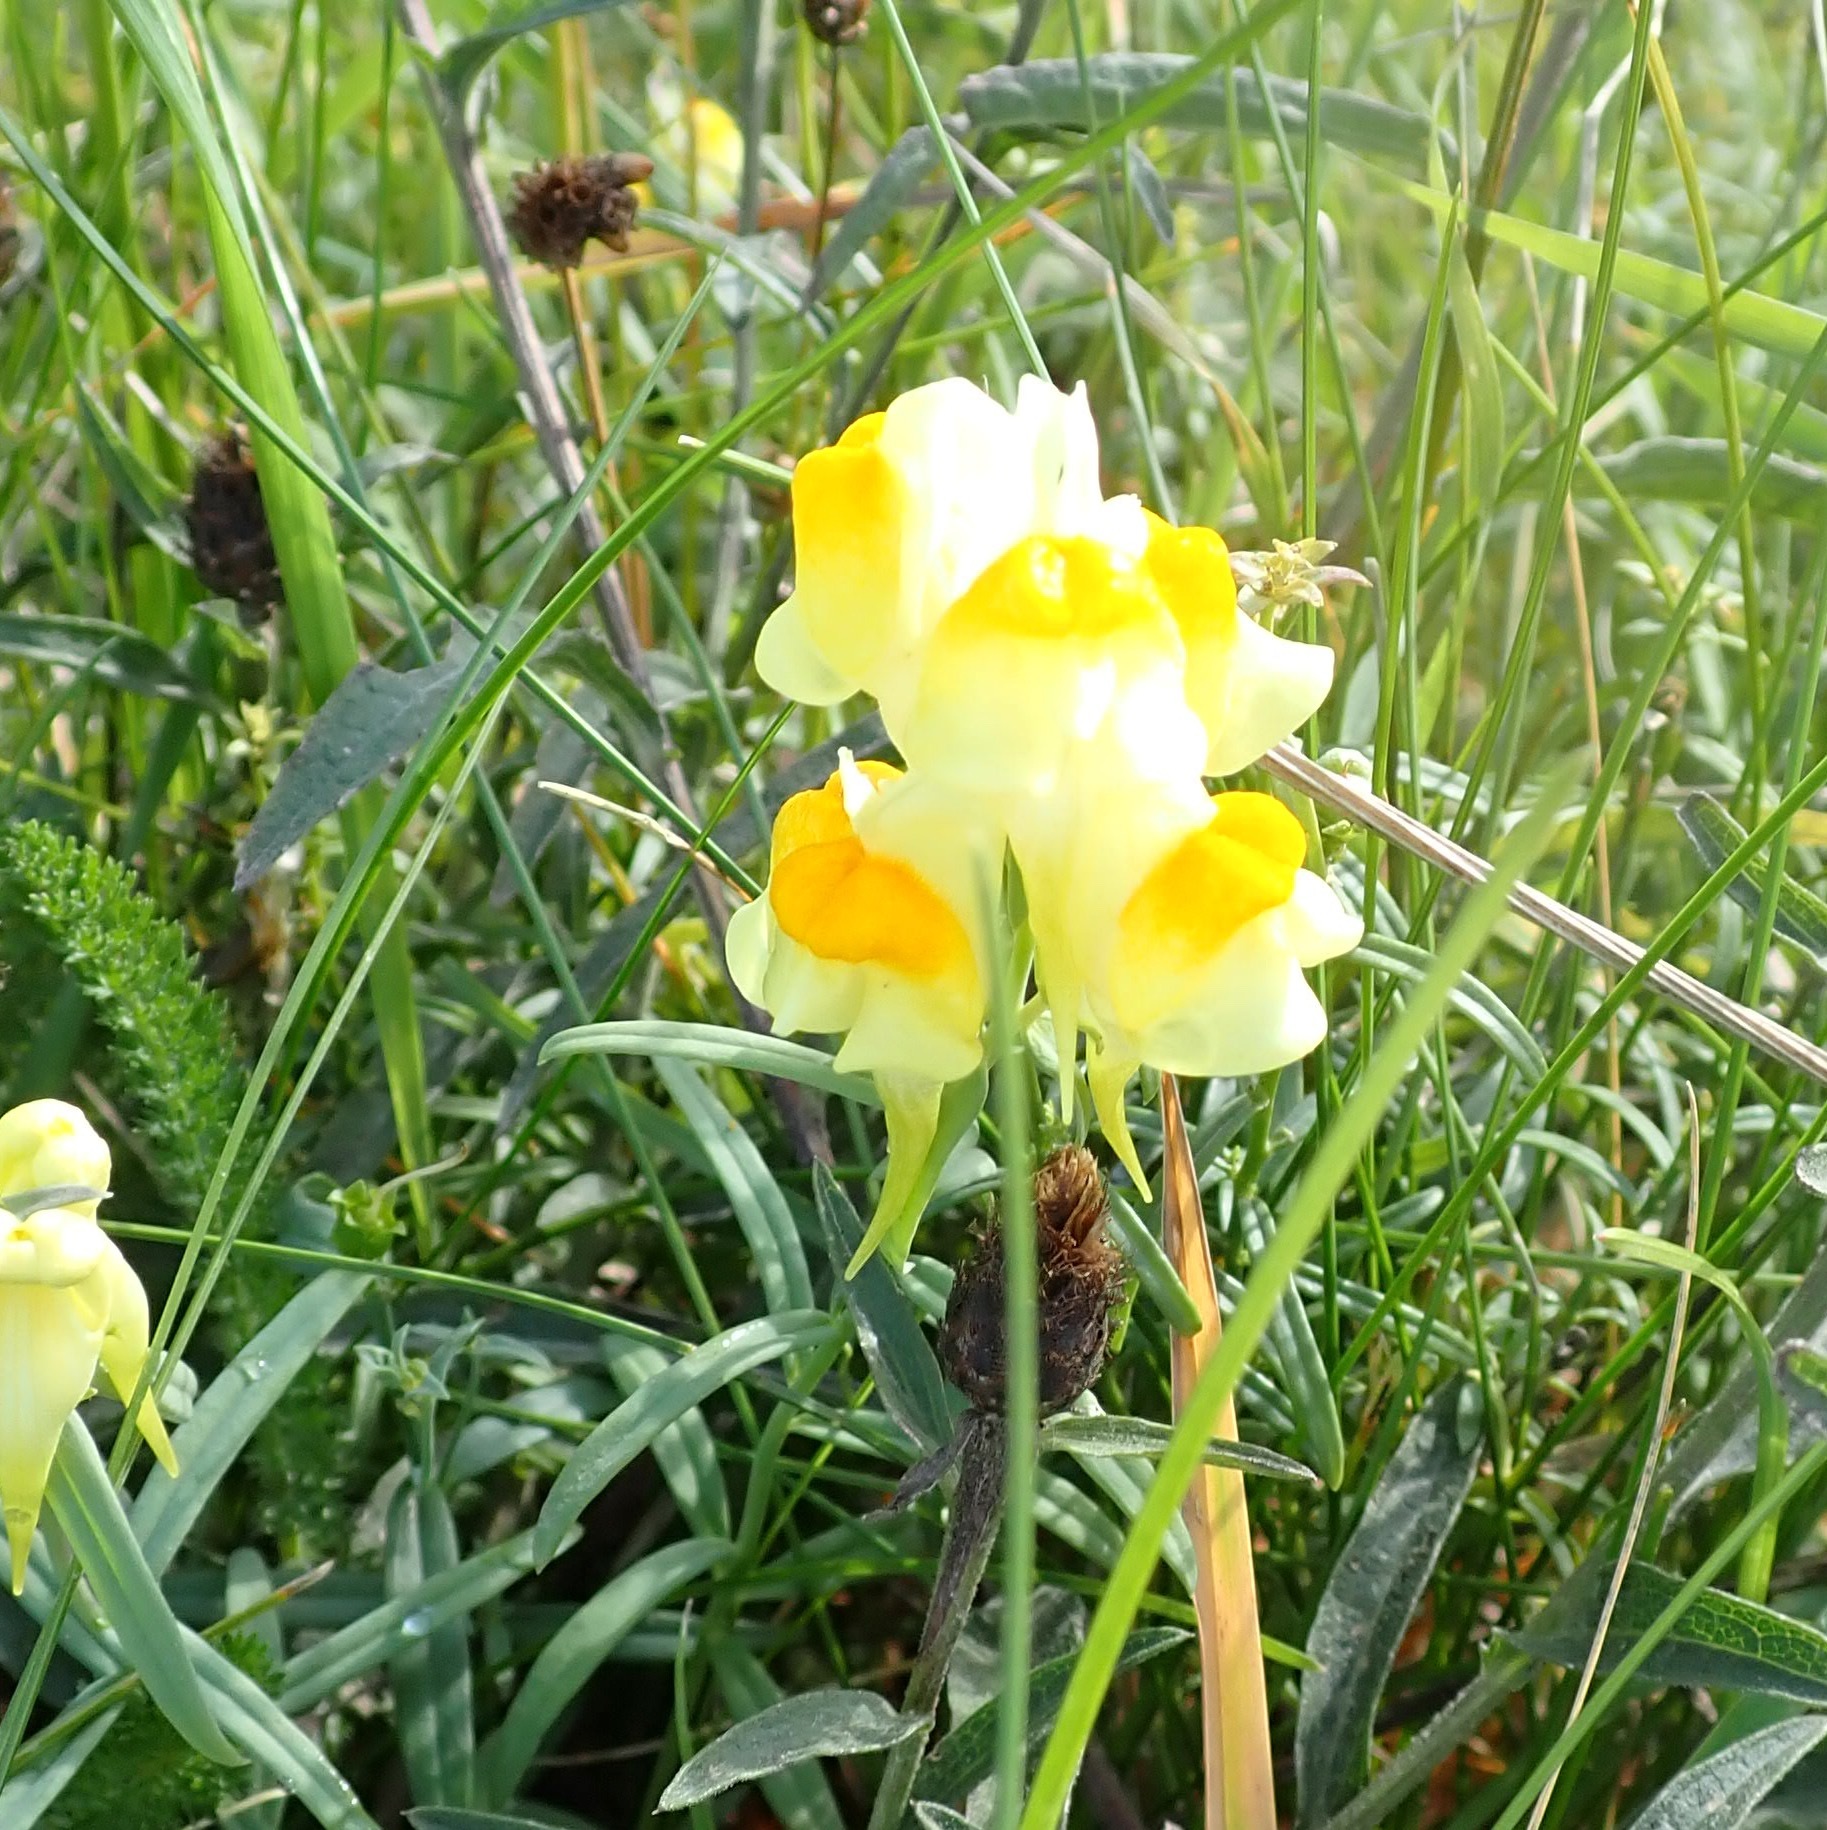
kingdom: Plantae
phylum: Tracheophyta
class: Magnoliopsida
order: Lamiales
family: Plantaginaceae
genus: Linaria
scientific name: Linaria vulgaris
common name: Butter and eggs
